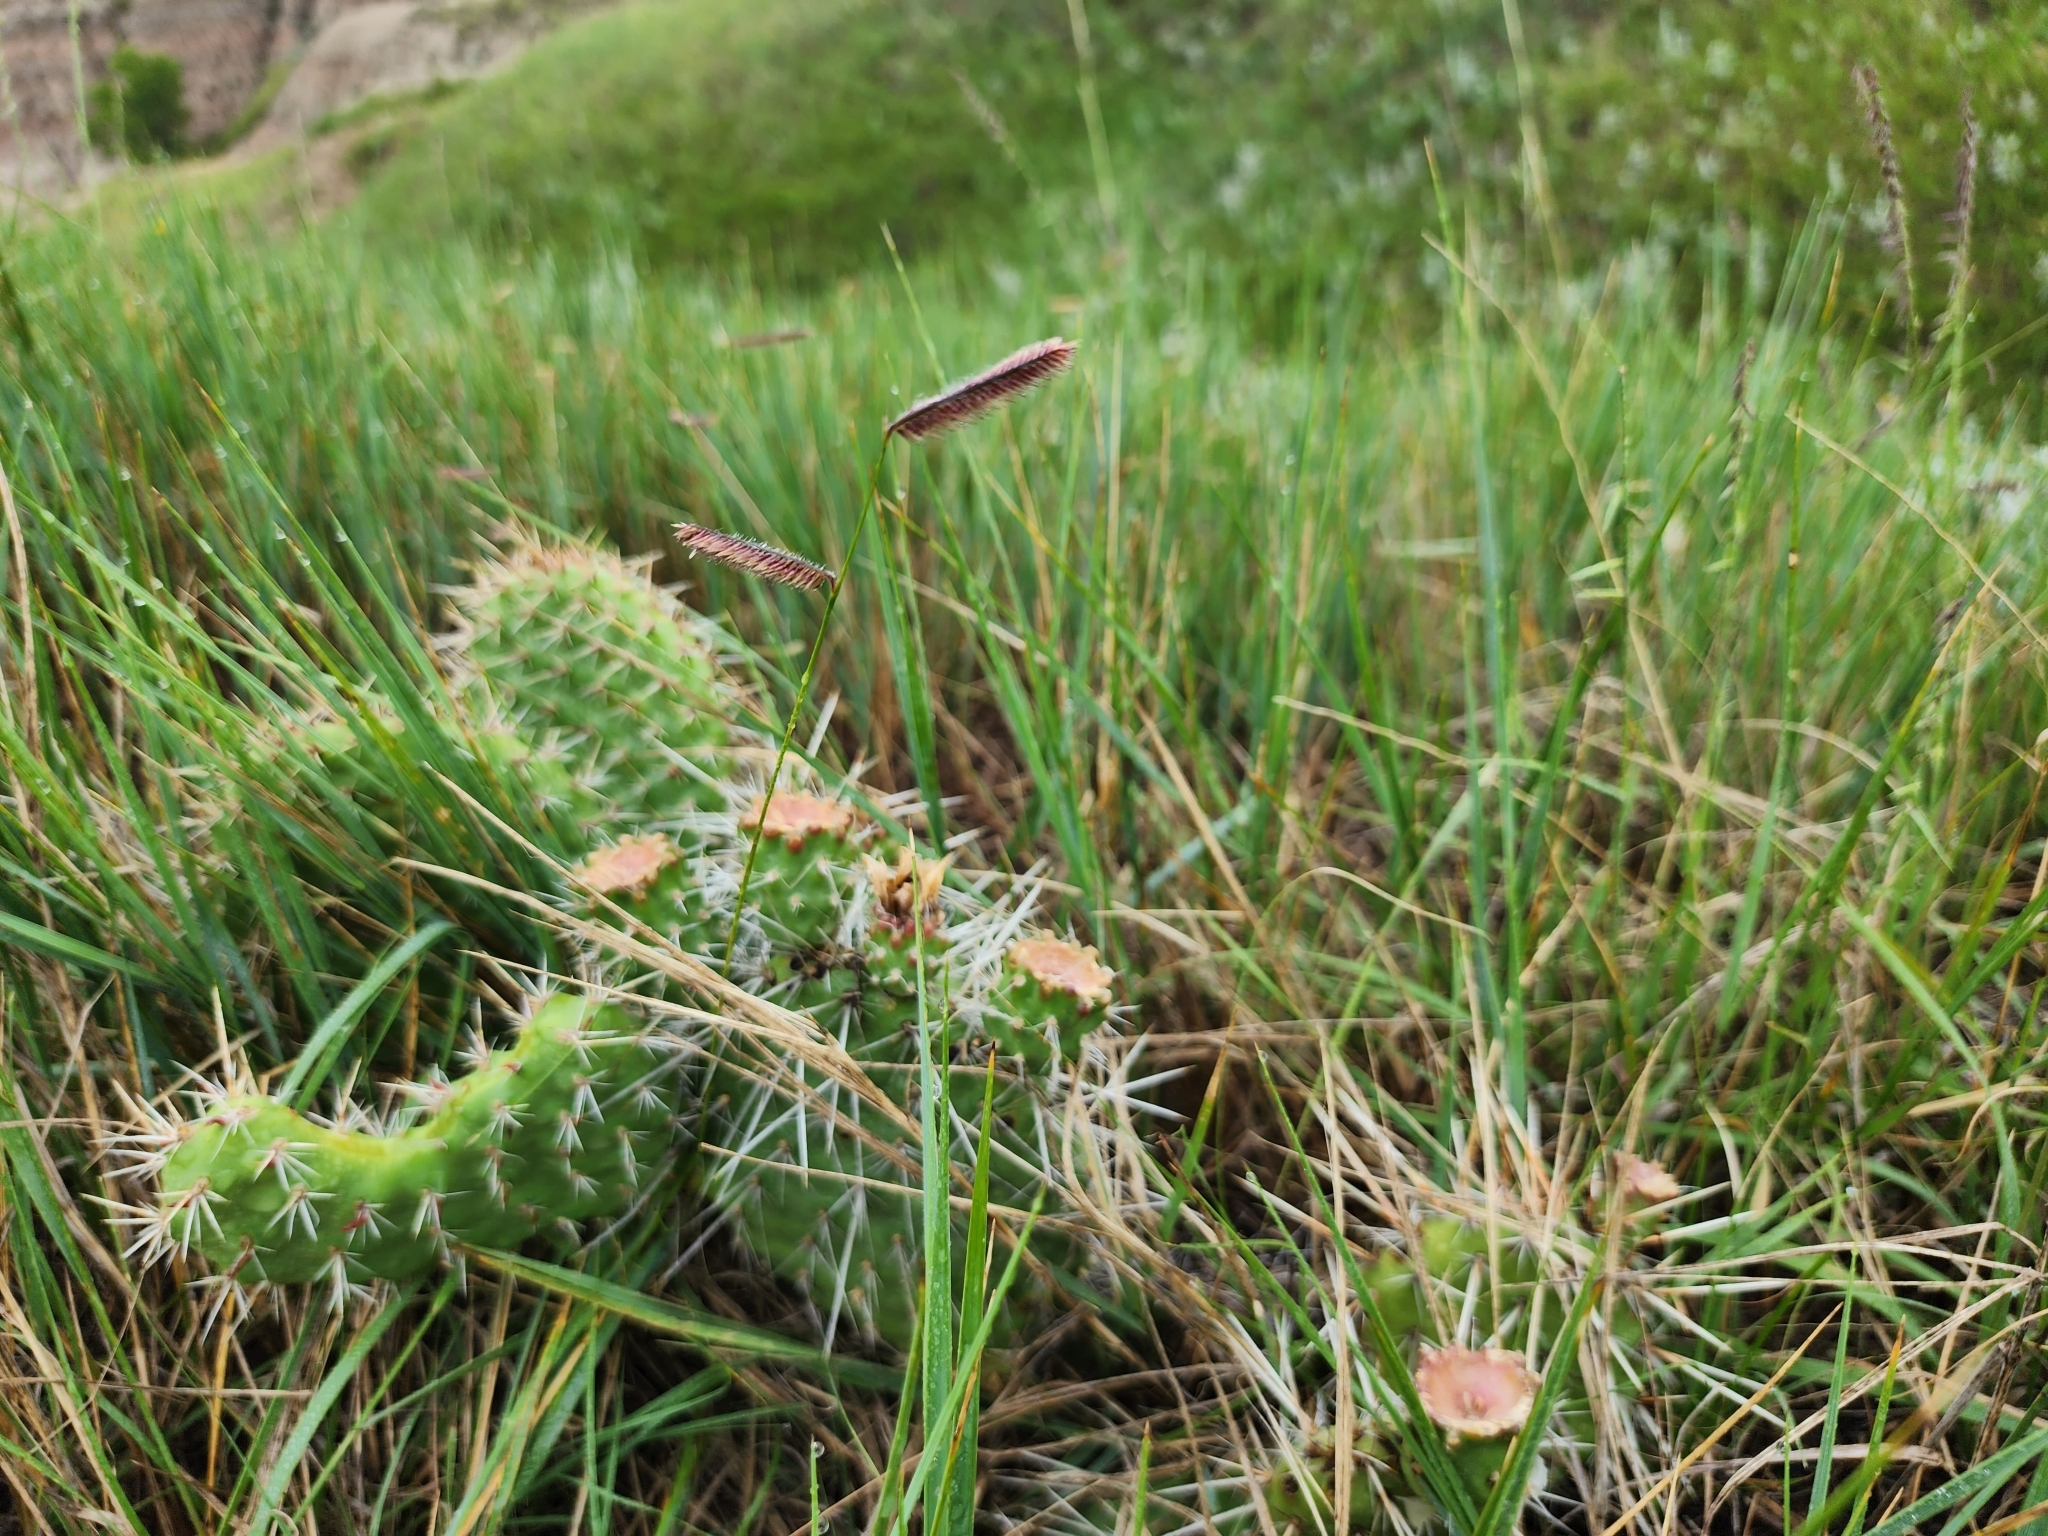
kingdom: Plantae
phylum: Tracheophyta
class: Liliopsida
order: Poales
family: Poaceae
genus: Bouteloua
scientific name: Bouteloua gracilis
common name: Blue grama
